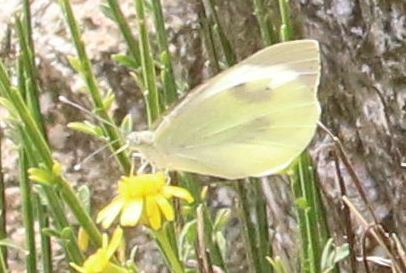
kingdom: Animalia
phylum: Arthropoda
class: Insecta
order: Lepidoptera
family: Pieridae
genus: Pieris
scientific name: Pieris brassicae
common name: Large white
